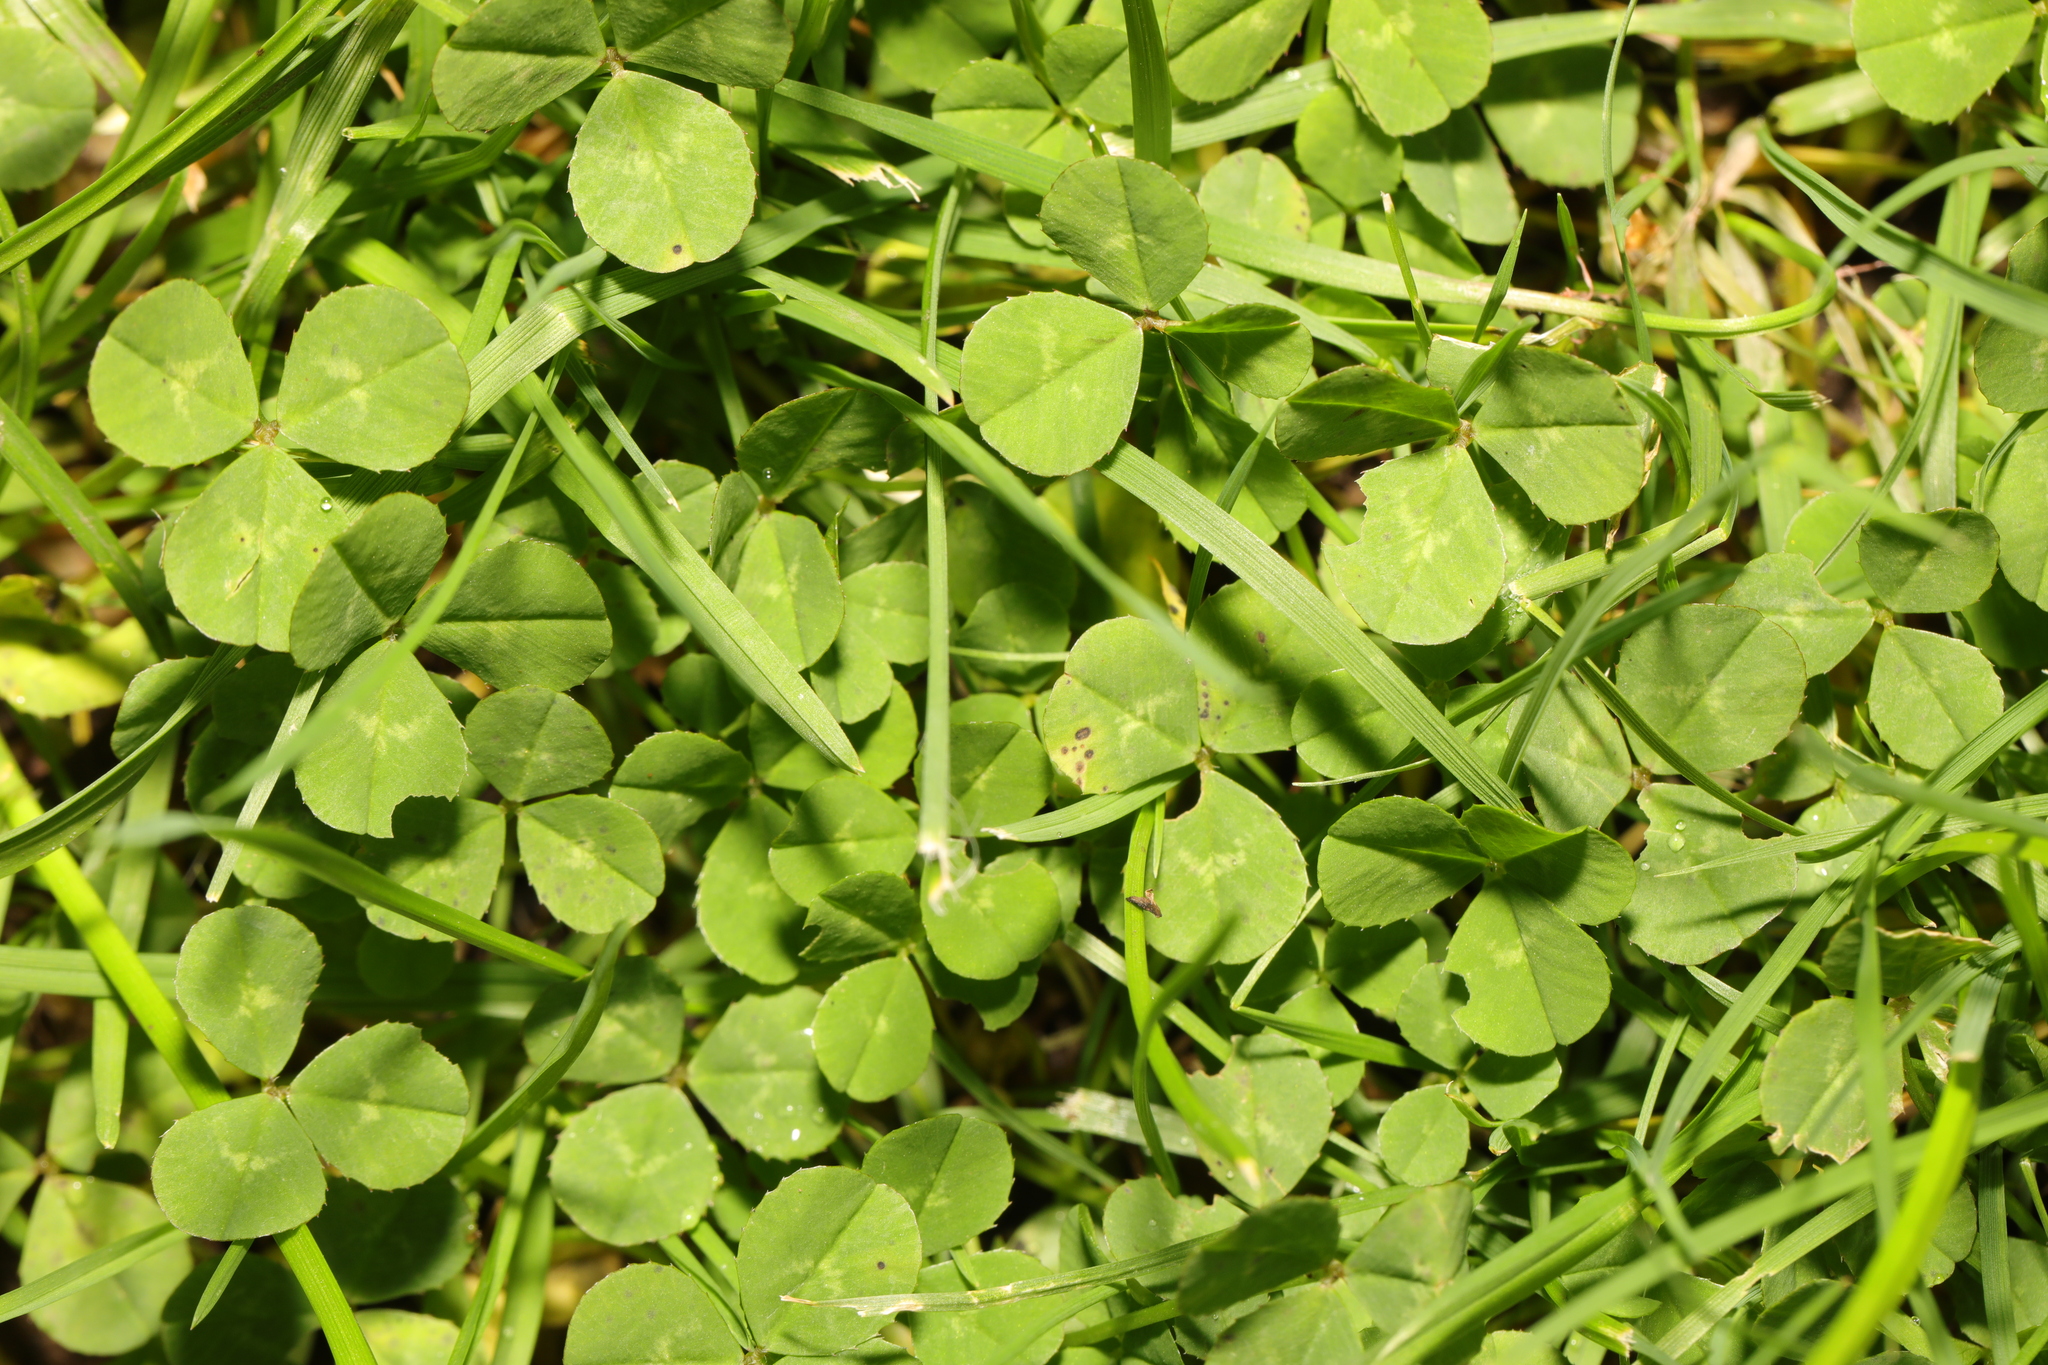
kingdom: Plantae
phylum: Tracheophyta
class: Magnoliopsida
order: Fabales
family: Fabaceae
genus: Trifolium
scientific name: Trifolium repens
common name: White clover
